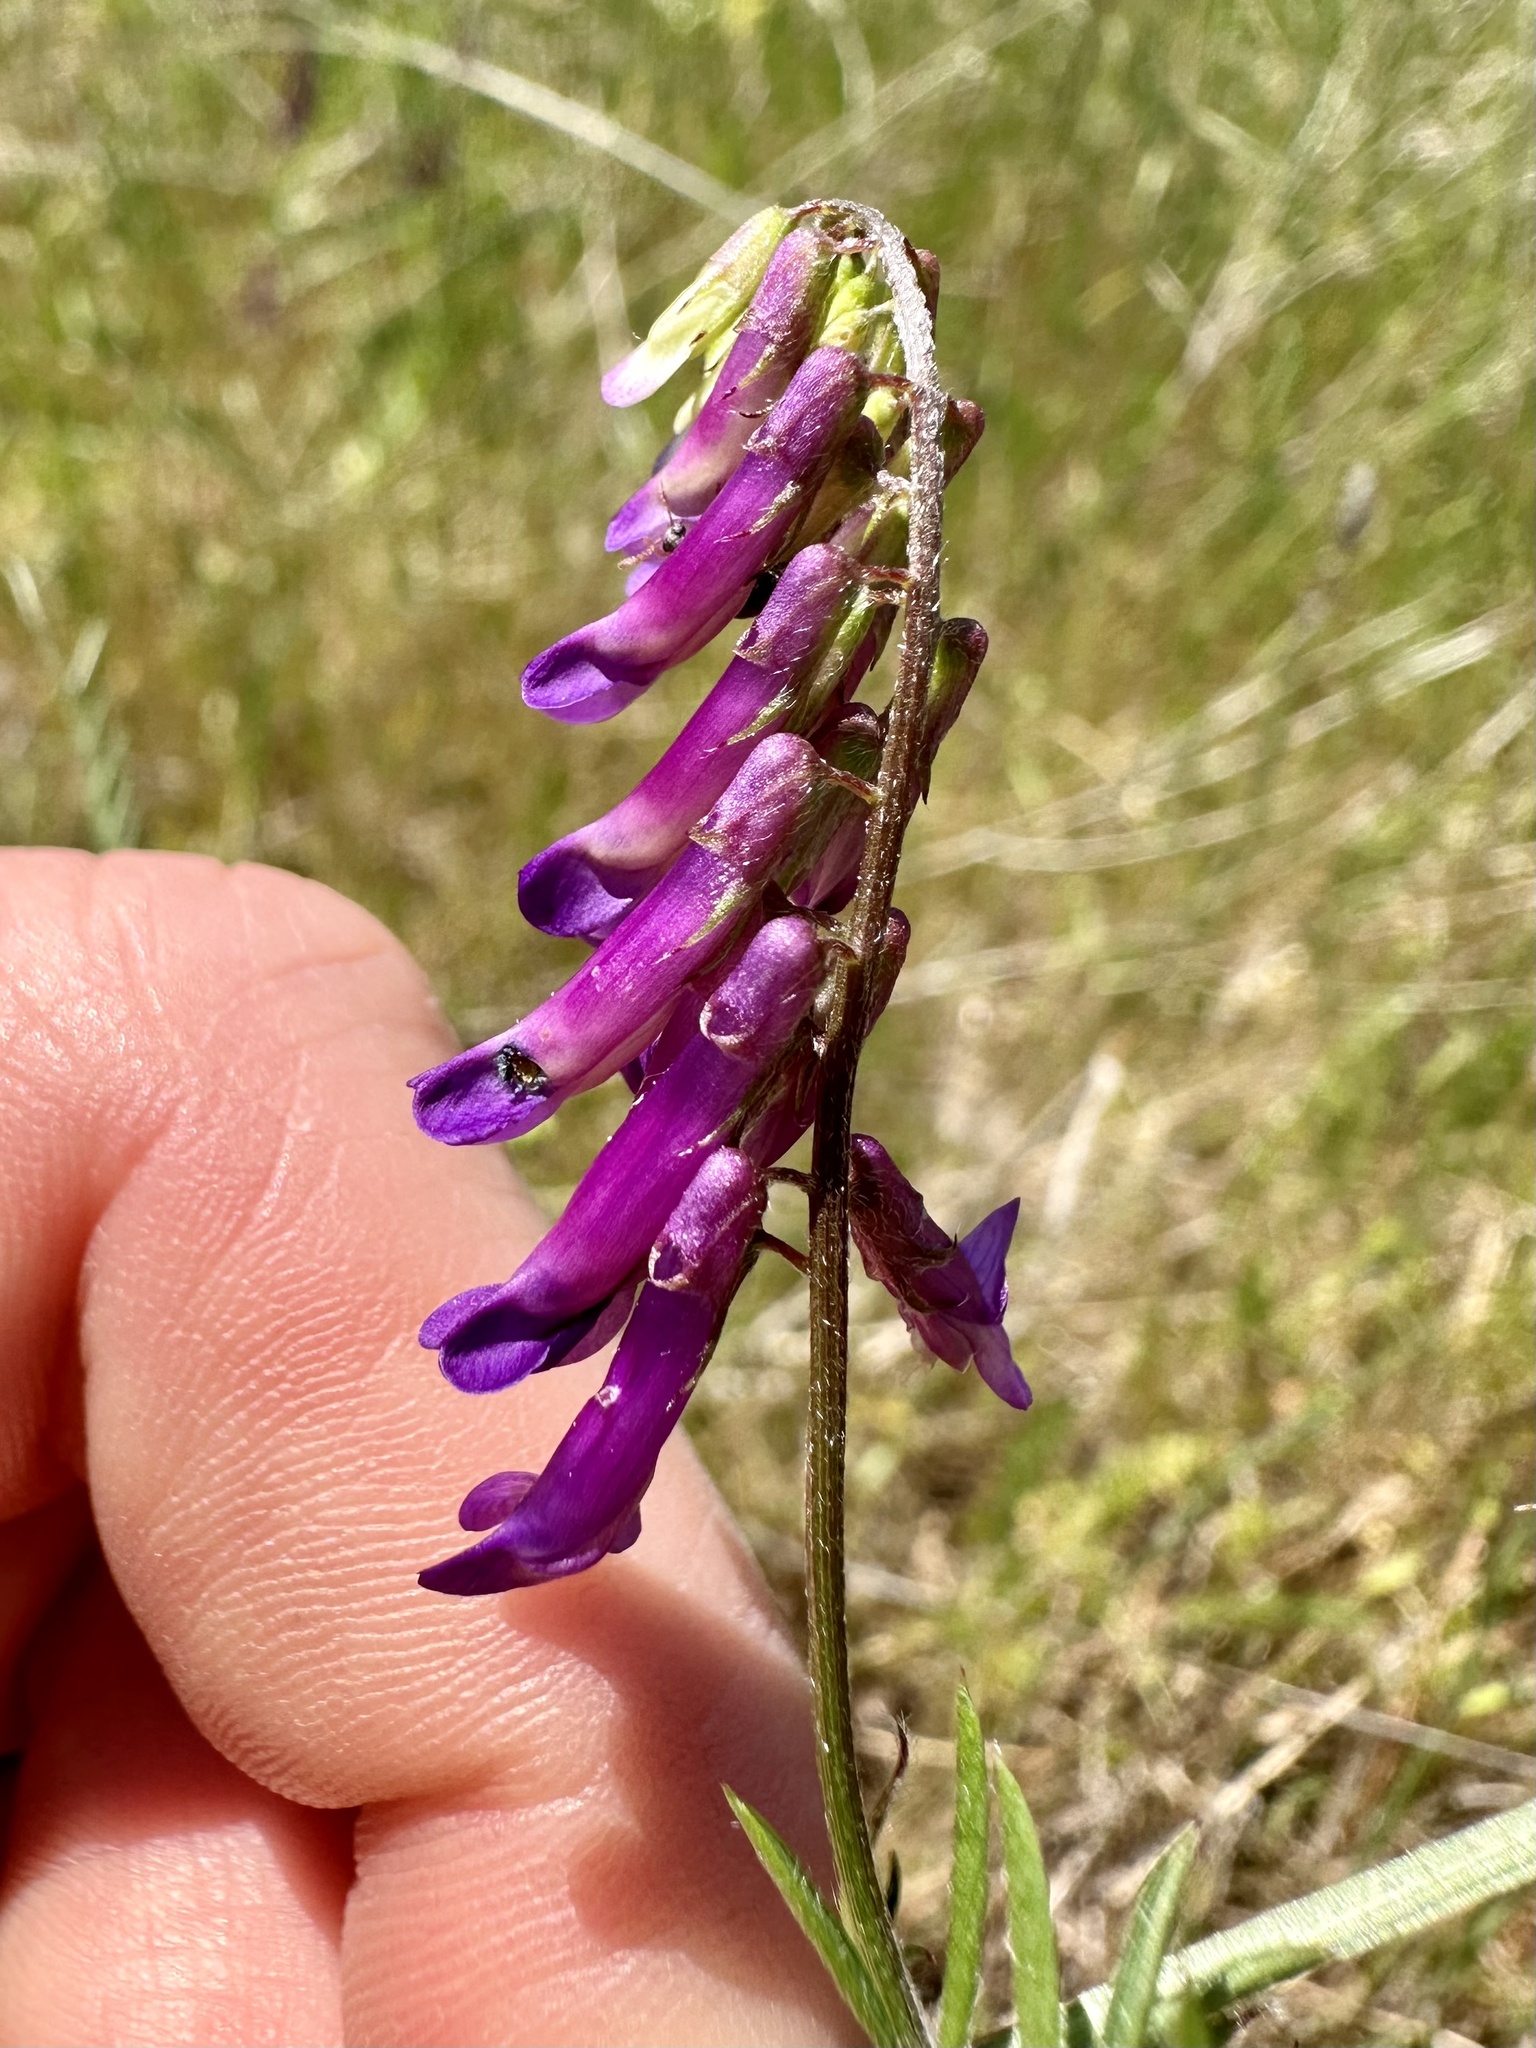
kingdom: Plantae
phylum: Tracheophyta
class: Magnoliopsida
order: Fabales
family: Fabaceae
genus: Vicia
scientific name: Vicia villosa
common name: Fodder vetch
